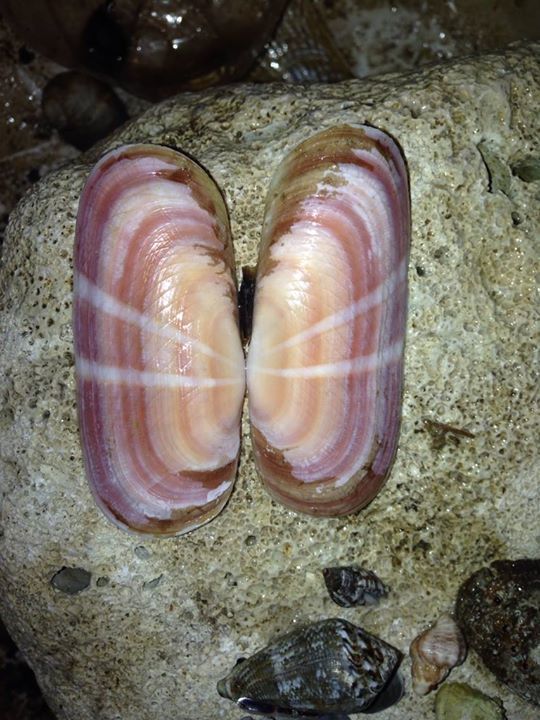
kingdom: Animalia
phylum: Mollusca
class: Bivalvia
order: Cardiida
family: Solecurtidae
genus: Solecurtus
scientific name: Solecurtus strigilatus
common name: Rosy razor clam
